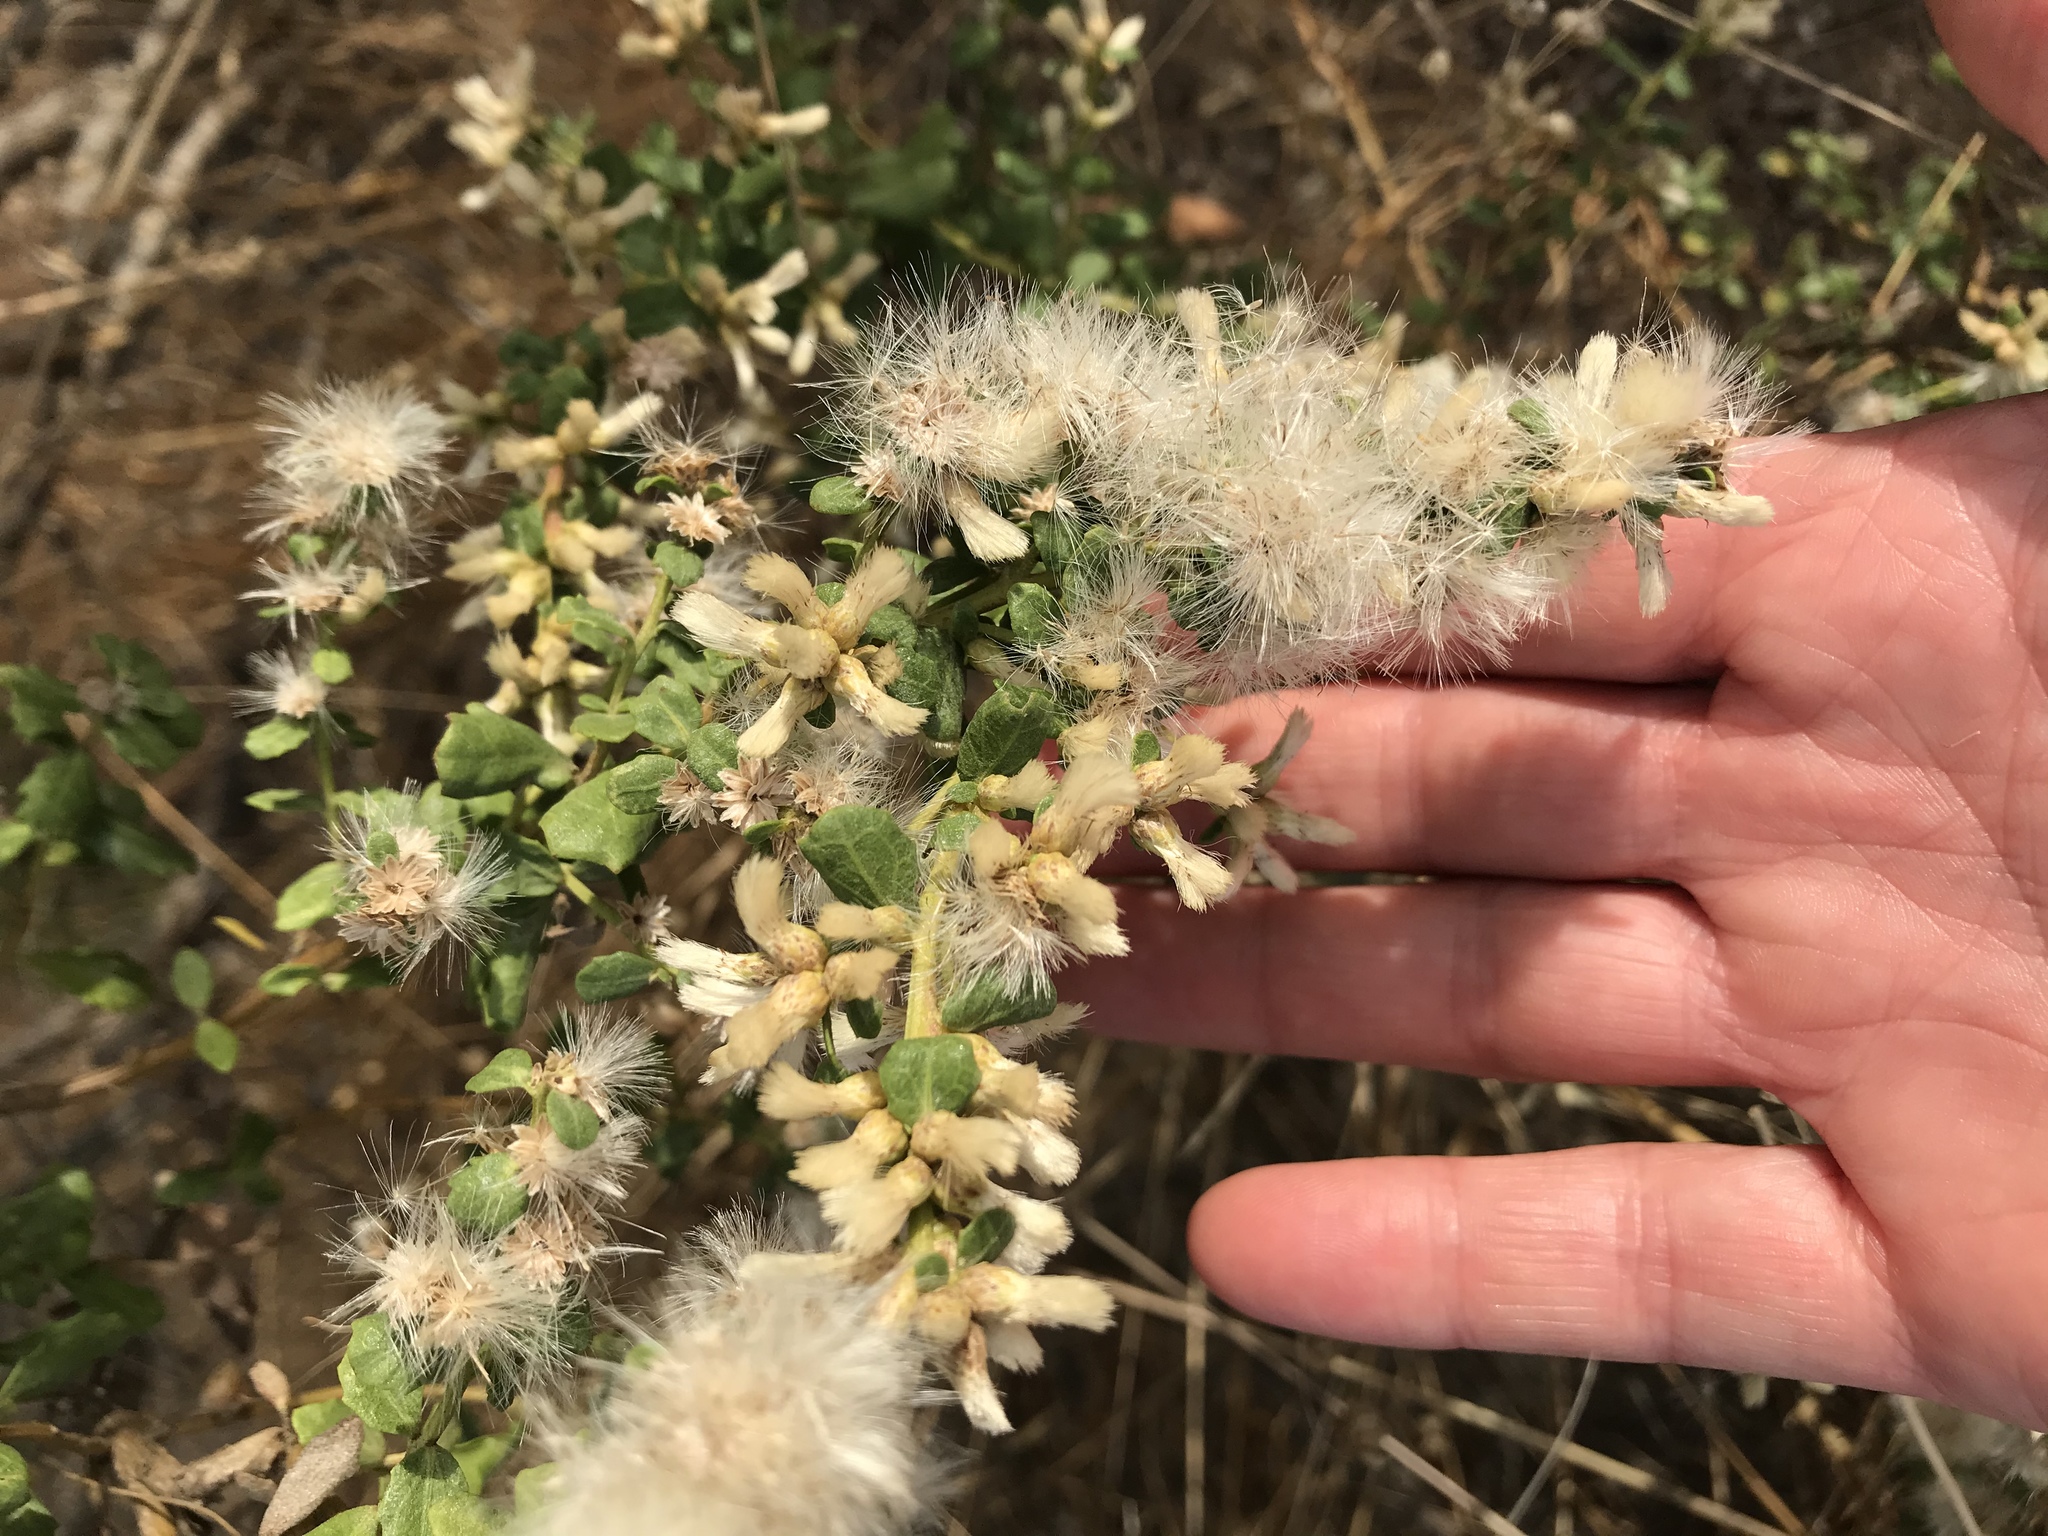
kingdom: Plantae
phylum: Tracheophyta
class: Magnoliopsida
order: Asterales
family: Asteraceae
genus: Baccharis
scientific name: Baccharis pilularis
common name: Coyotebrush
